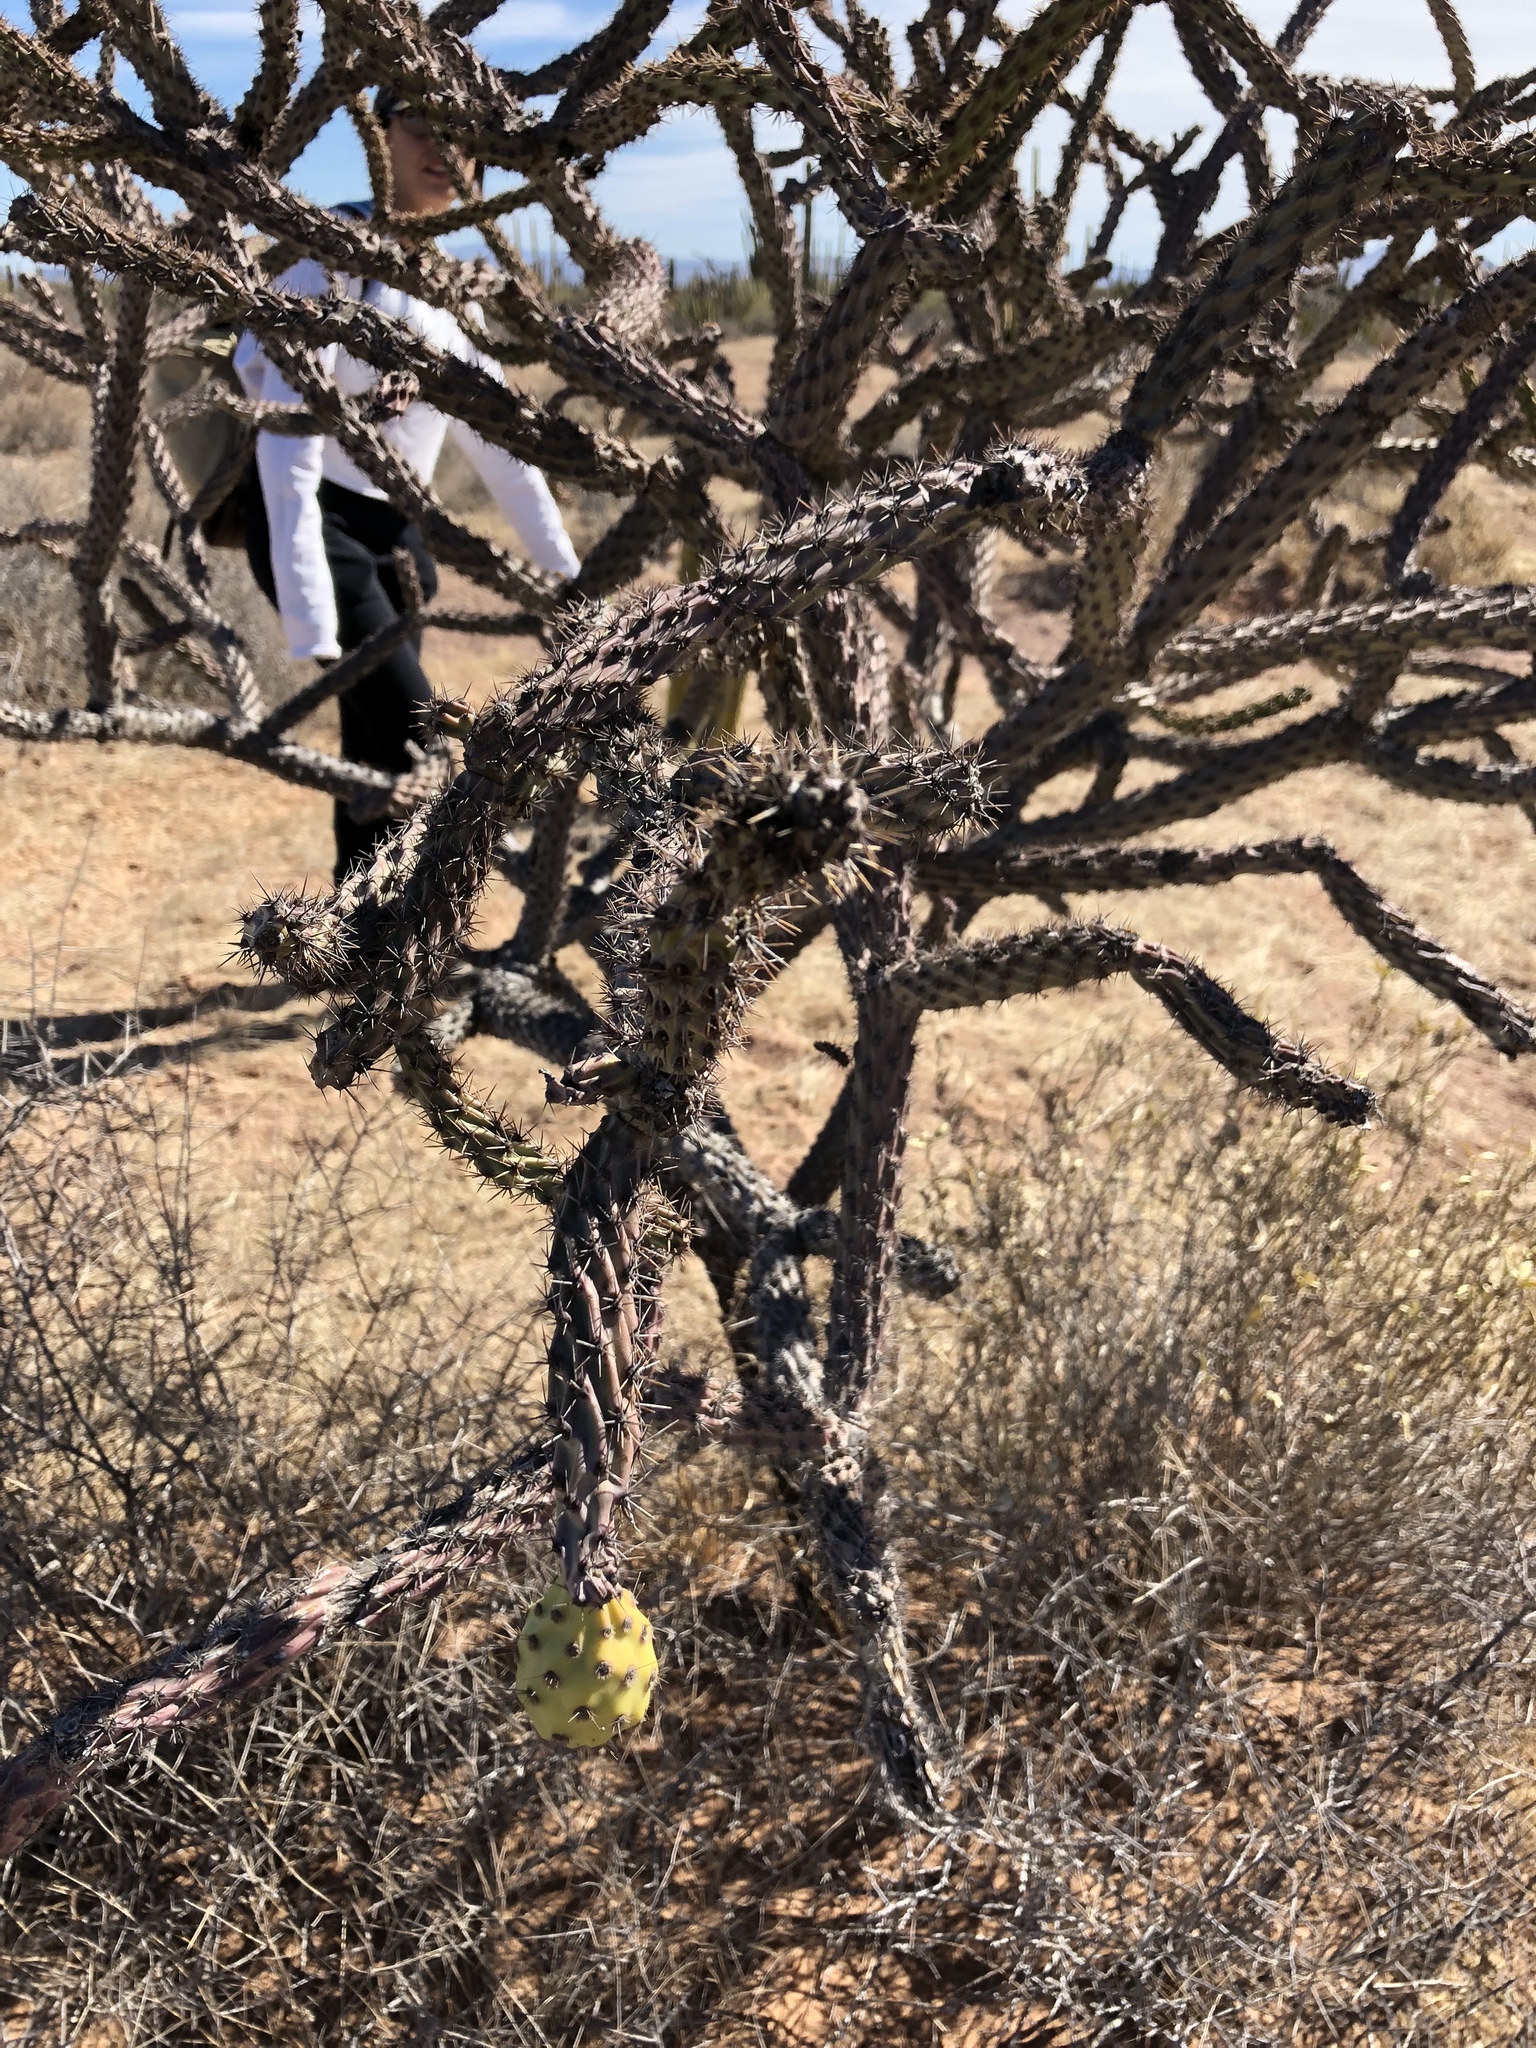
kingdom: Plantae
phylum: Tracheophyta
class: Magnoliopsida
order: Caryophyllales
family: Cactaceae
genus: Cylindropuntia
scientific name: Cylindropuntia thurberi
